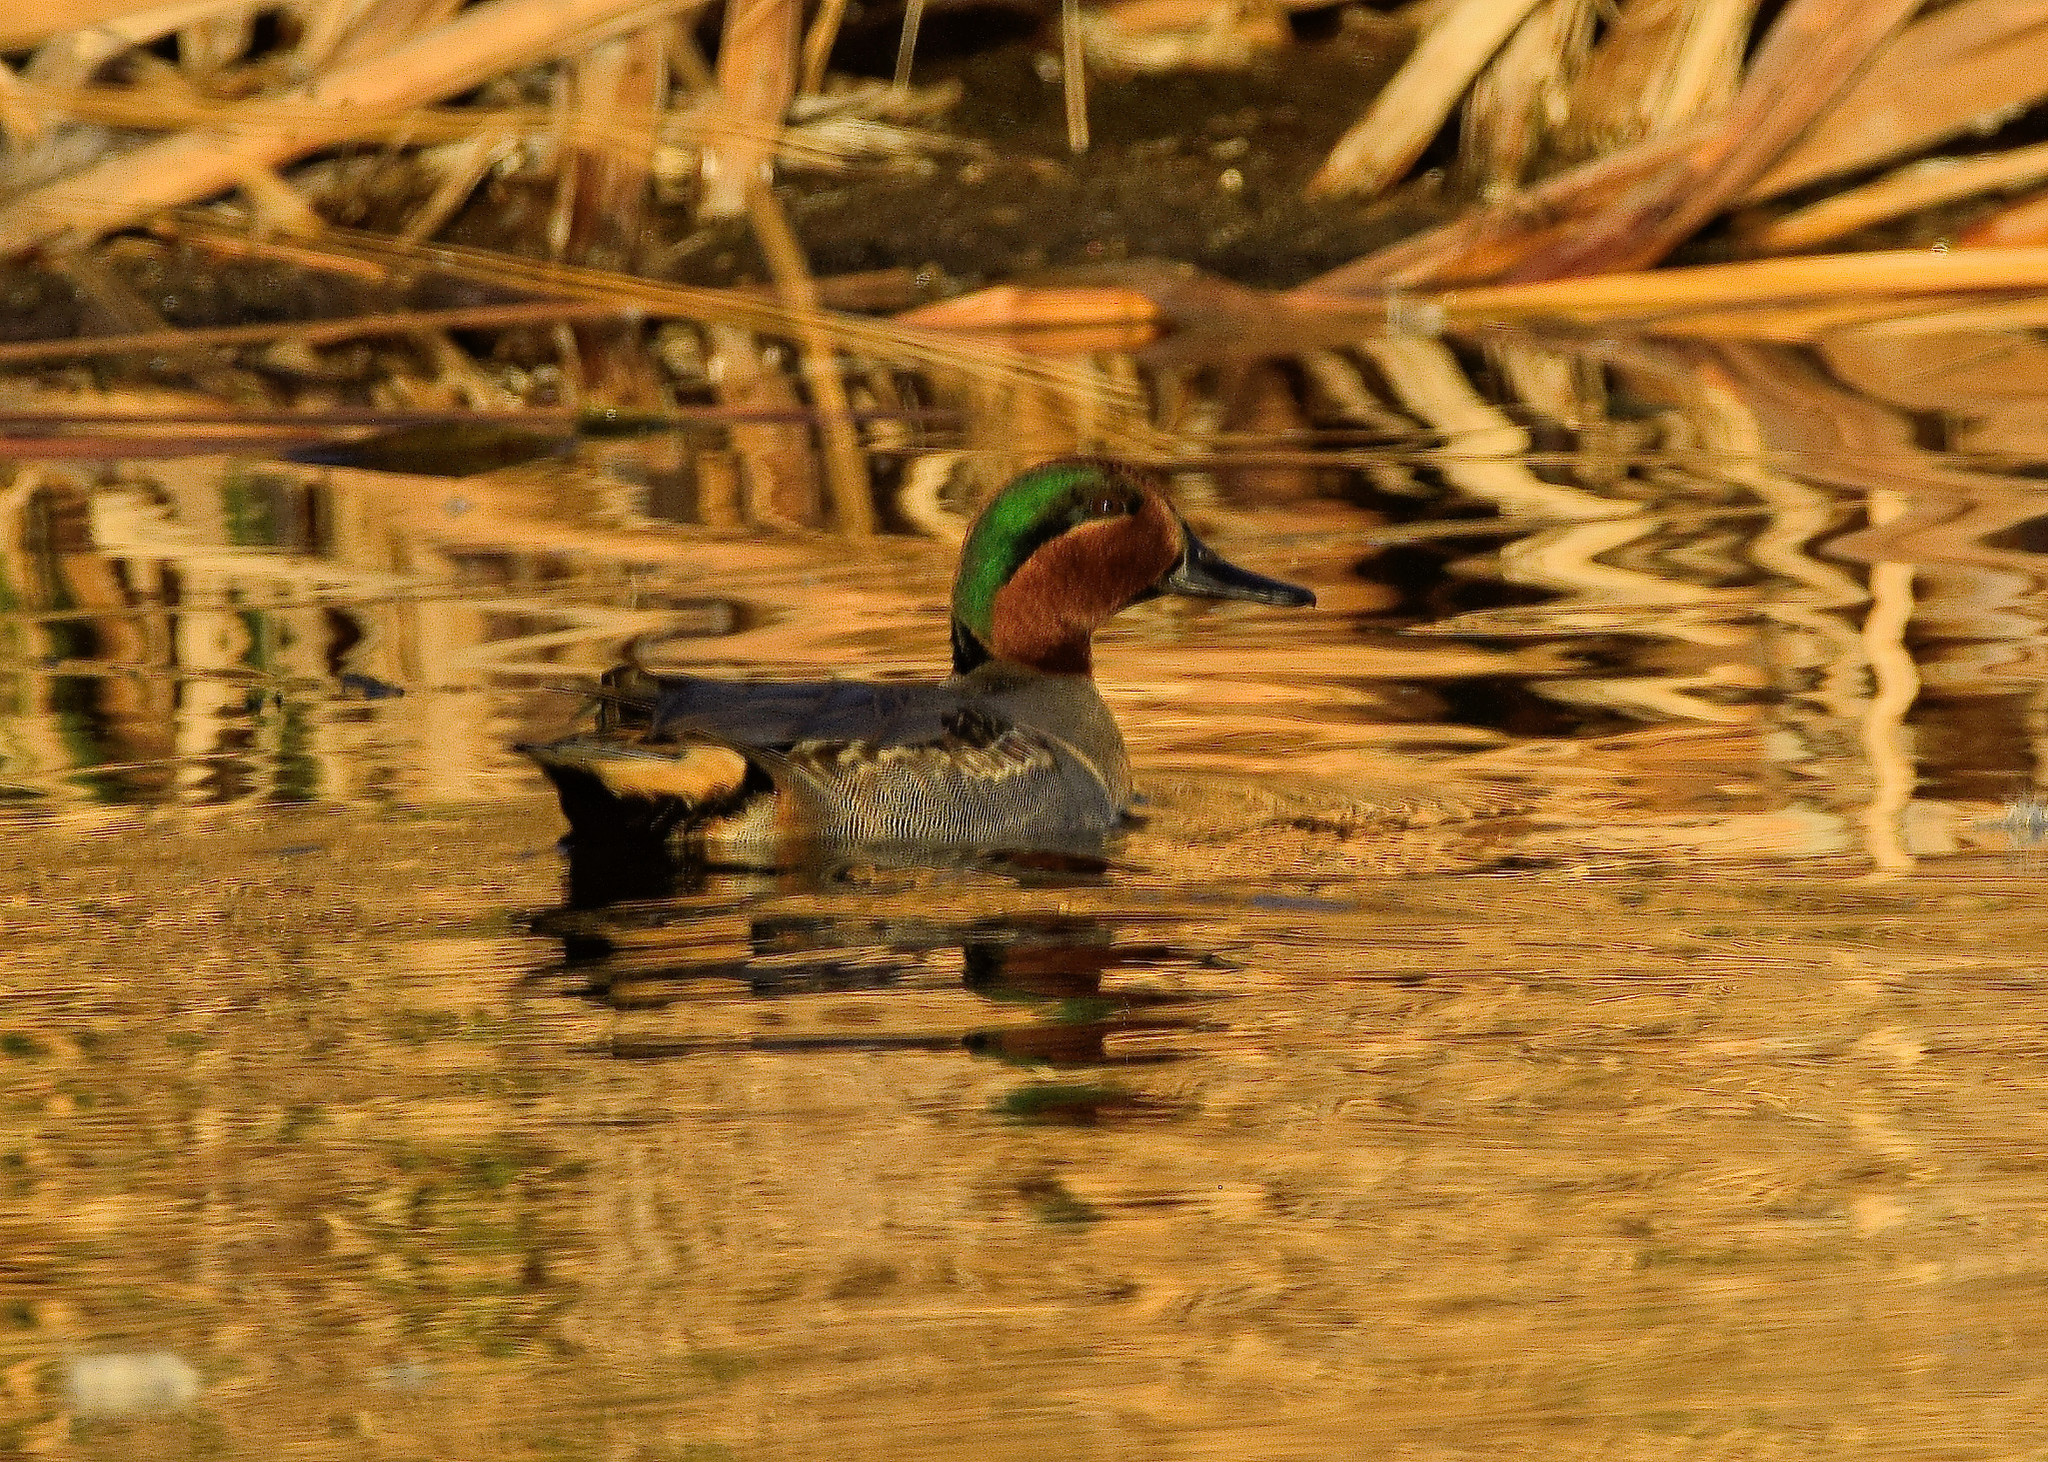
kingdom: Animalia
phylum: Chordata
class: Aves
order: Anseriformes
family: Anatidae
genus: Anas
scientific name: Anas crecca
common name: Eurasian teal
